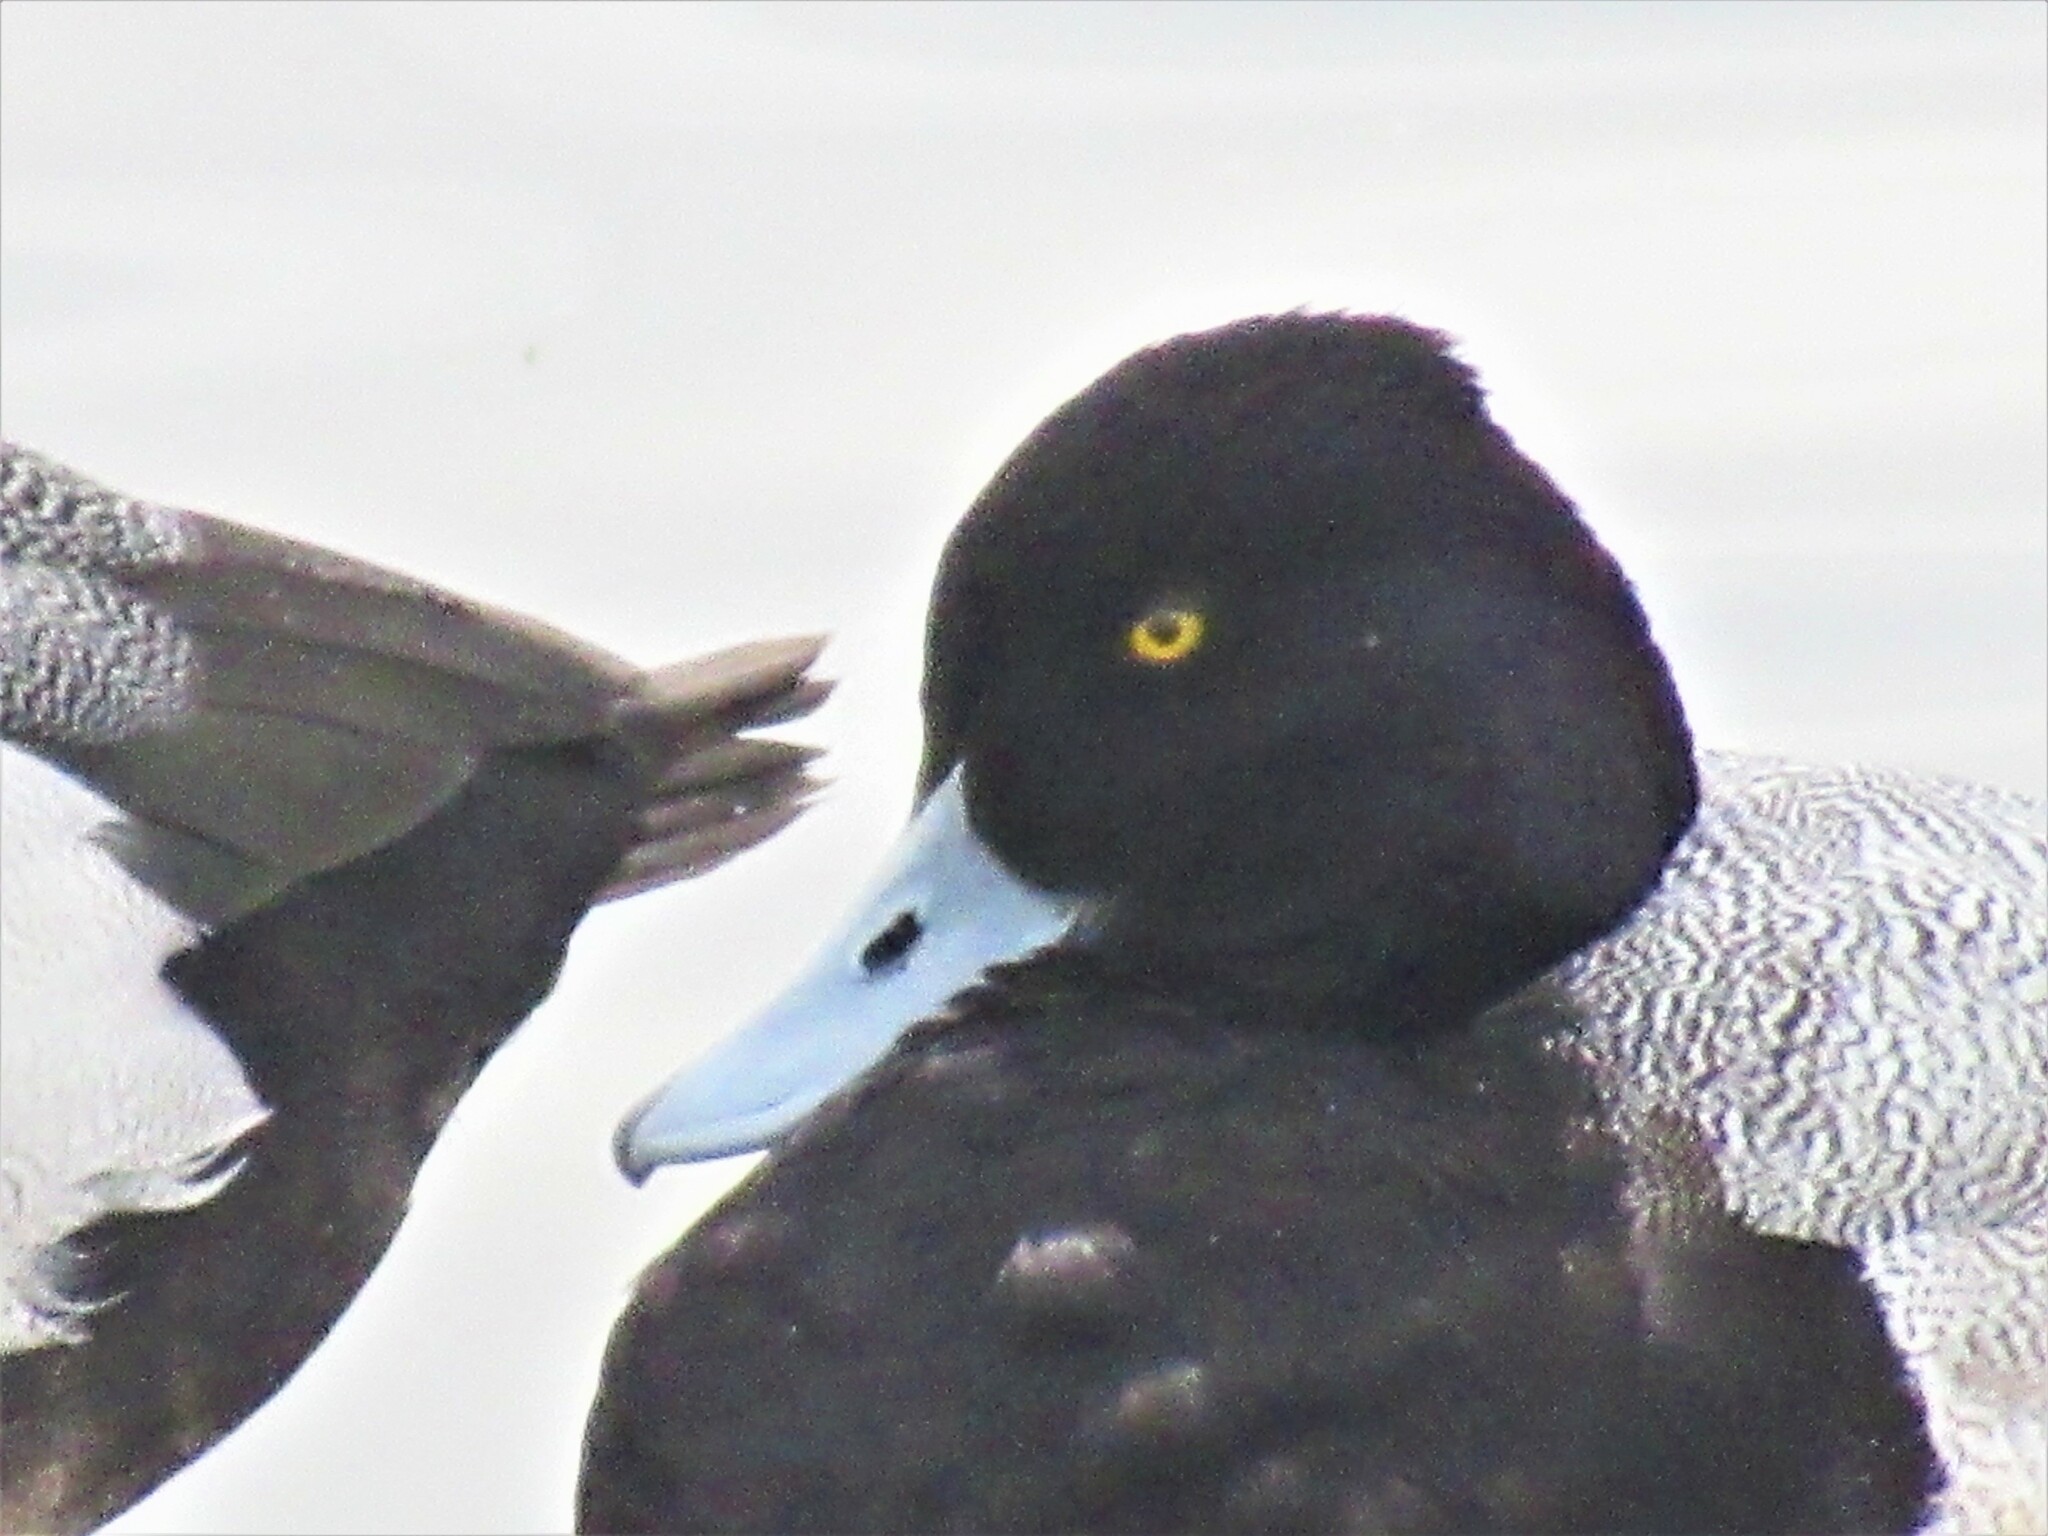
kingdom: Animalia
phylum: Chordata
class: Aves
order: Anseriformes
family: Anatidae
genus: Aythya
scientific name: Aythya affinis
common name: Lesser scaup
